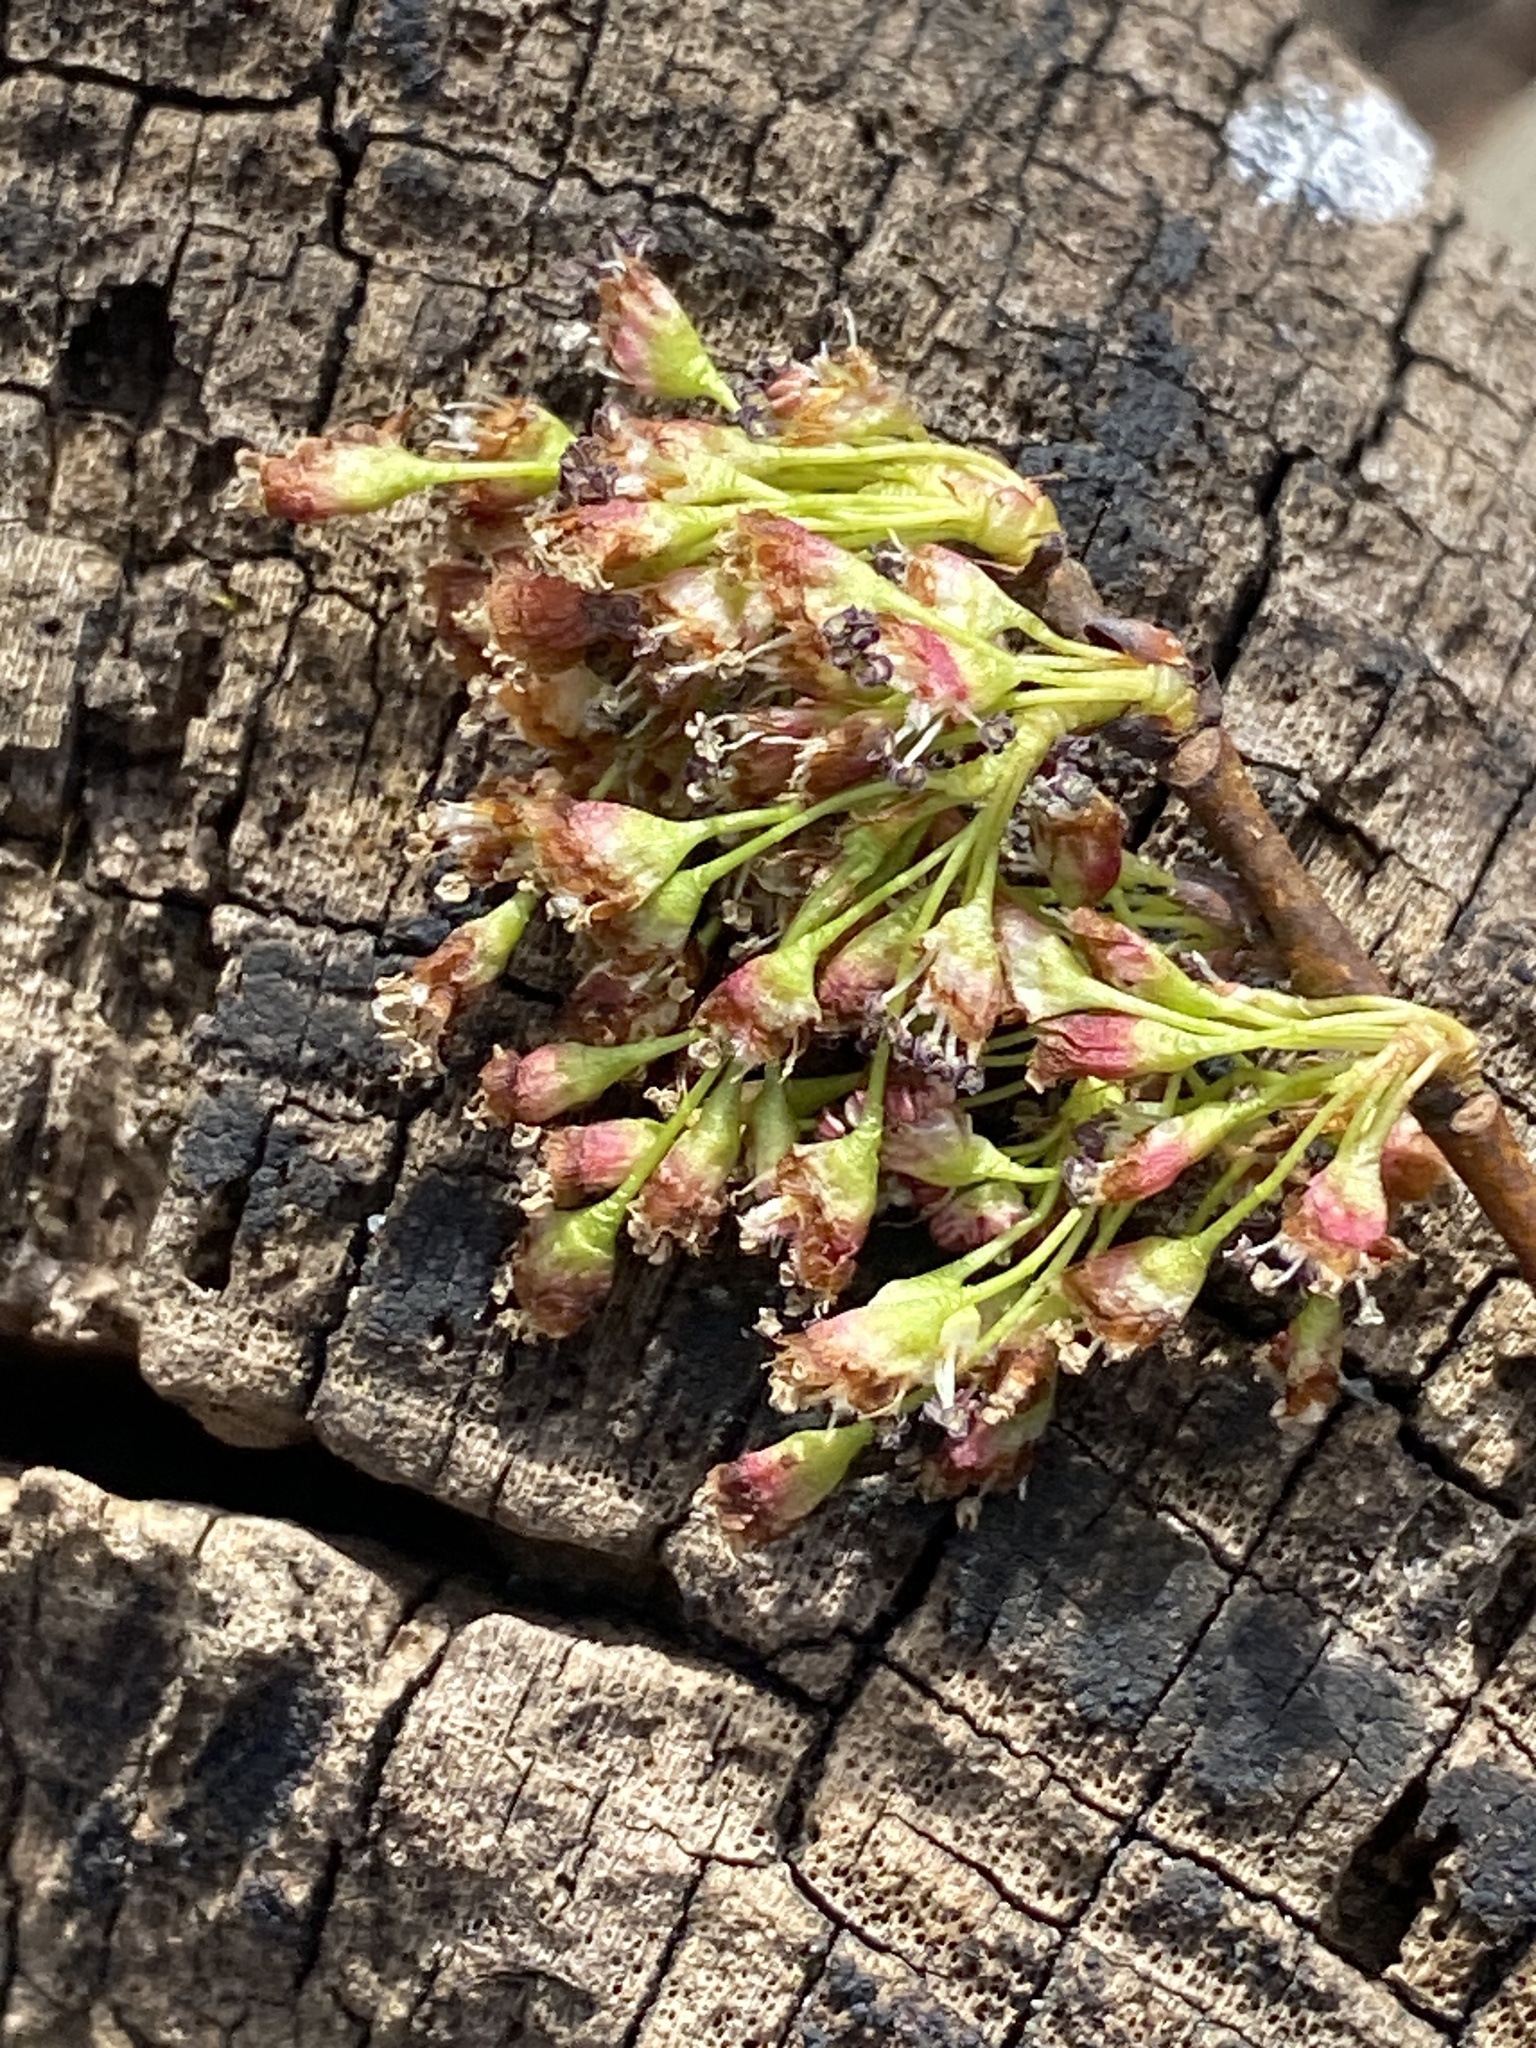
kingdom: Plantae
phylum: Tracheophyta
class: Magnoliopsida
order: Rosales
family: Ulmaceae
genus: Ulmus
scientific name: Ulmus americana
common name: American elm
